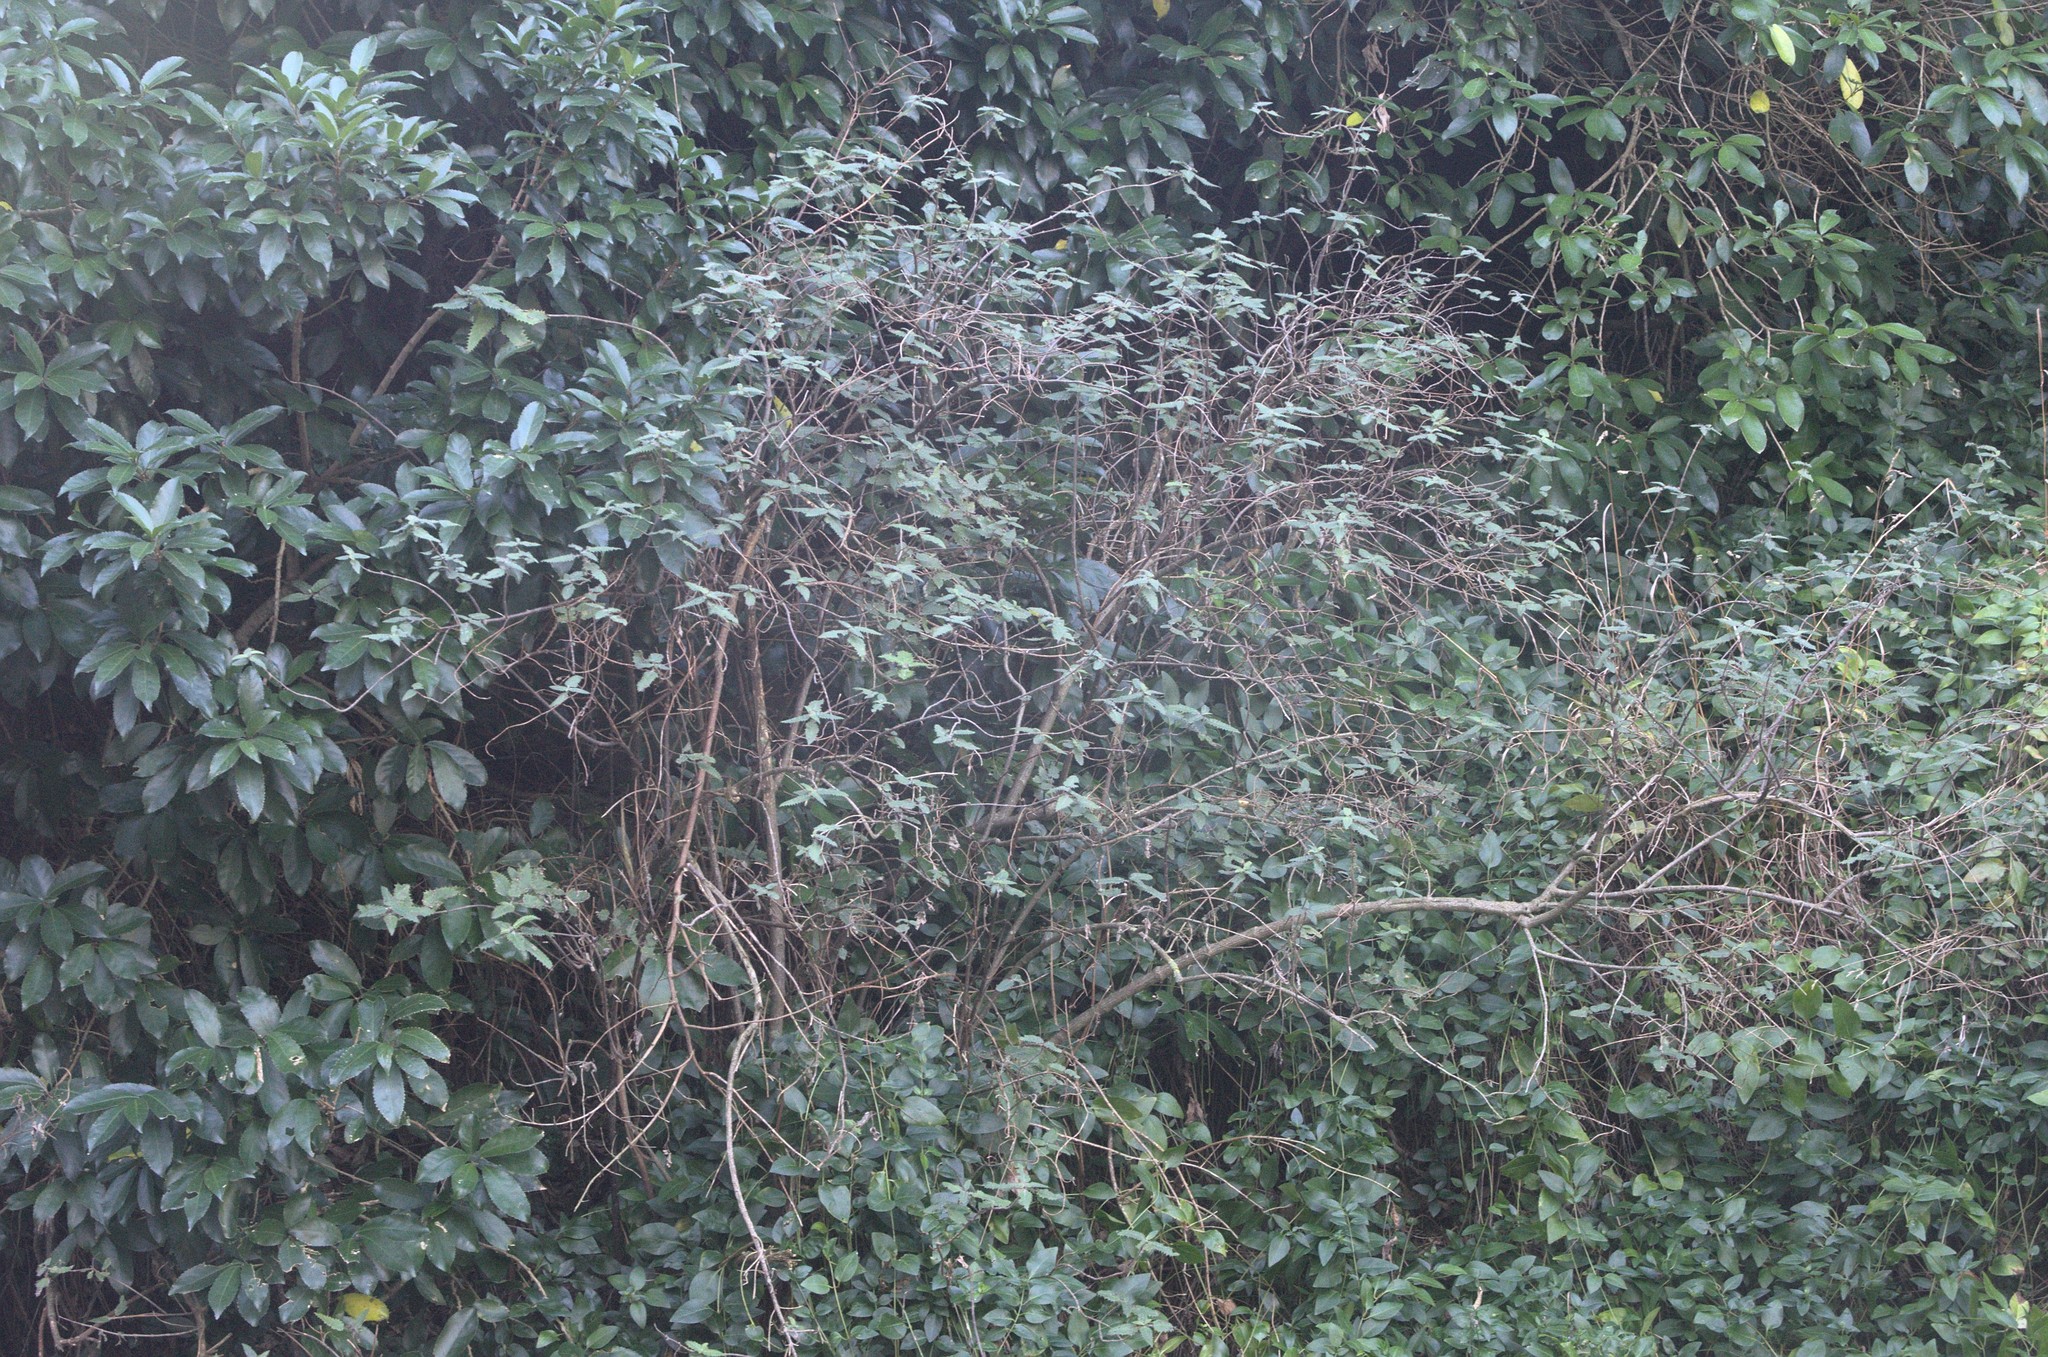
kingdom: Plantae
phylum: Tracheophyta
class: Magnoliopsida
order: Rosales
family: Urticaceae
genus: Urtica
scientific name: Urtica ferox
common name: Tree nettle
